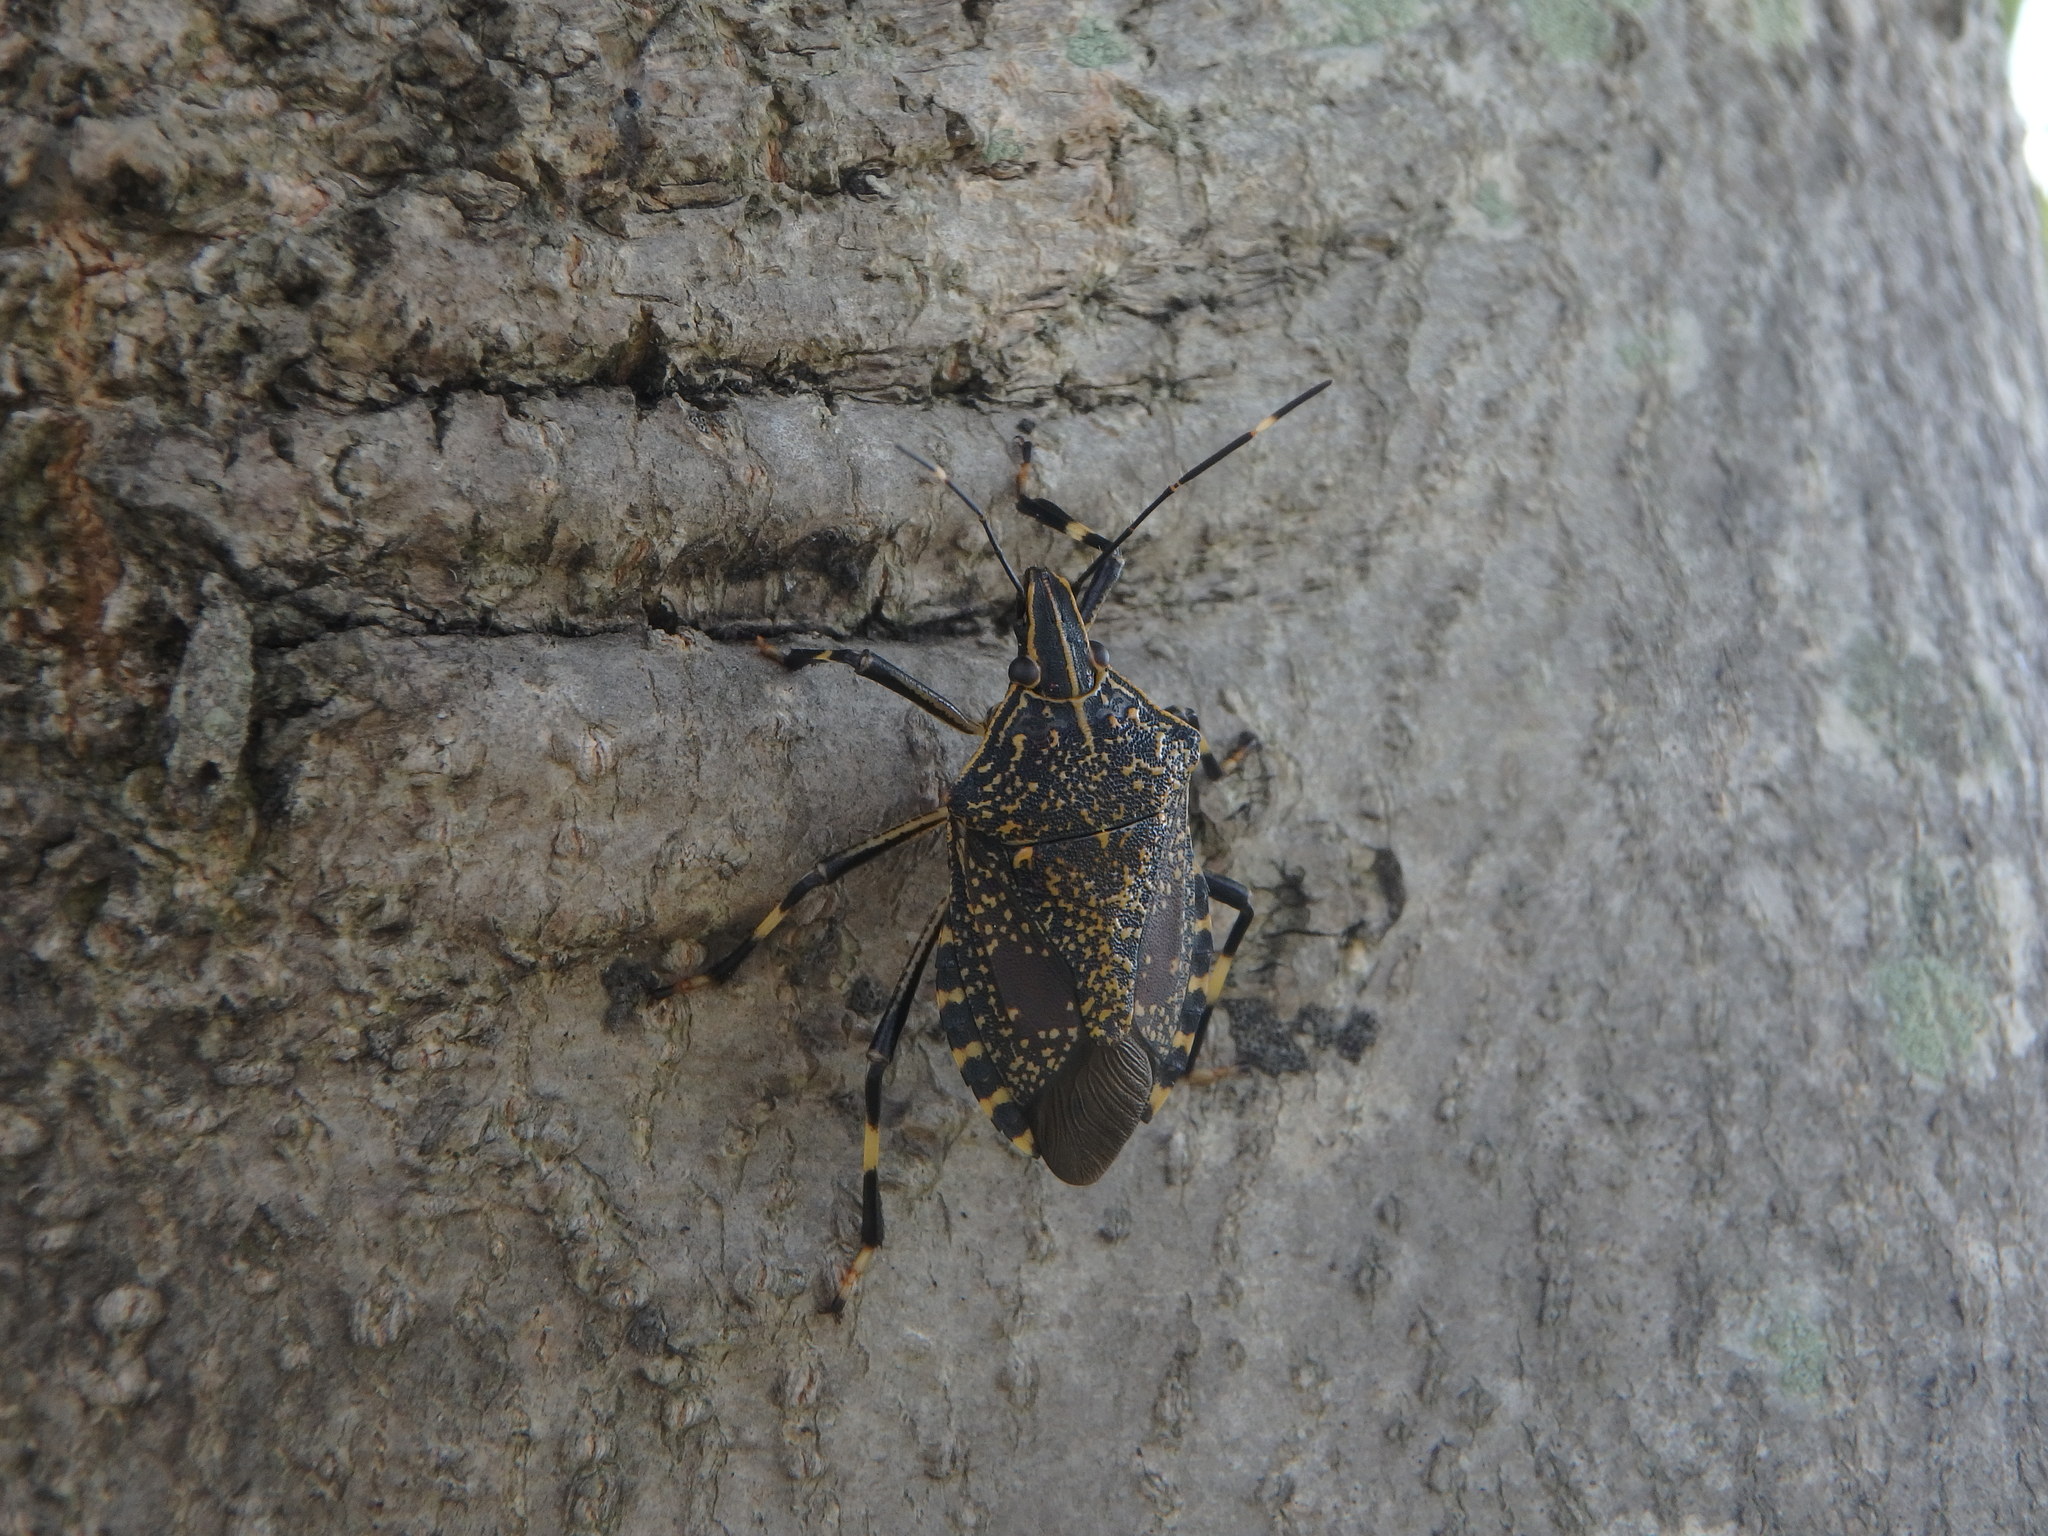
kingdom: Animalia
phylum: Arthropoda
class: Insecta
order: Hemiptera
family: Pentatomidae
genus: Erthesina
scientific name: Erthesina fullo
